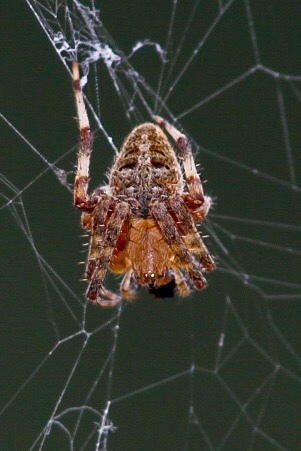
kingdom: Animalia
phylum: Arthropoda
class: Arachnida
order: Araneae
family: Araneidae
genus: Neoscona
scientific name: Neoscona crucifera
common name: Spotted orbweaver
